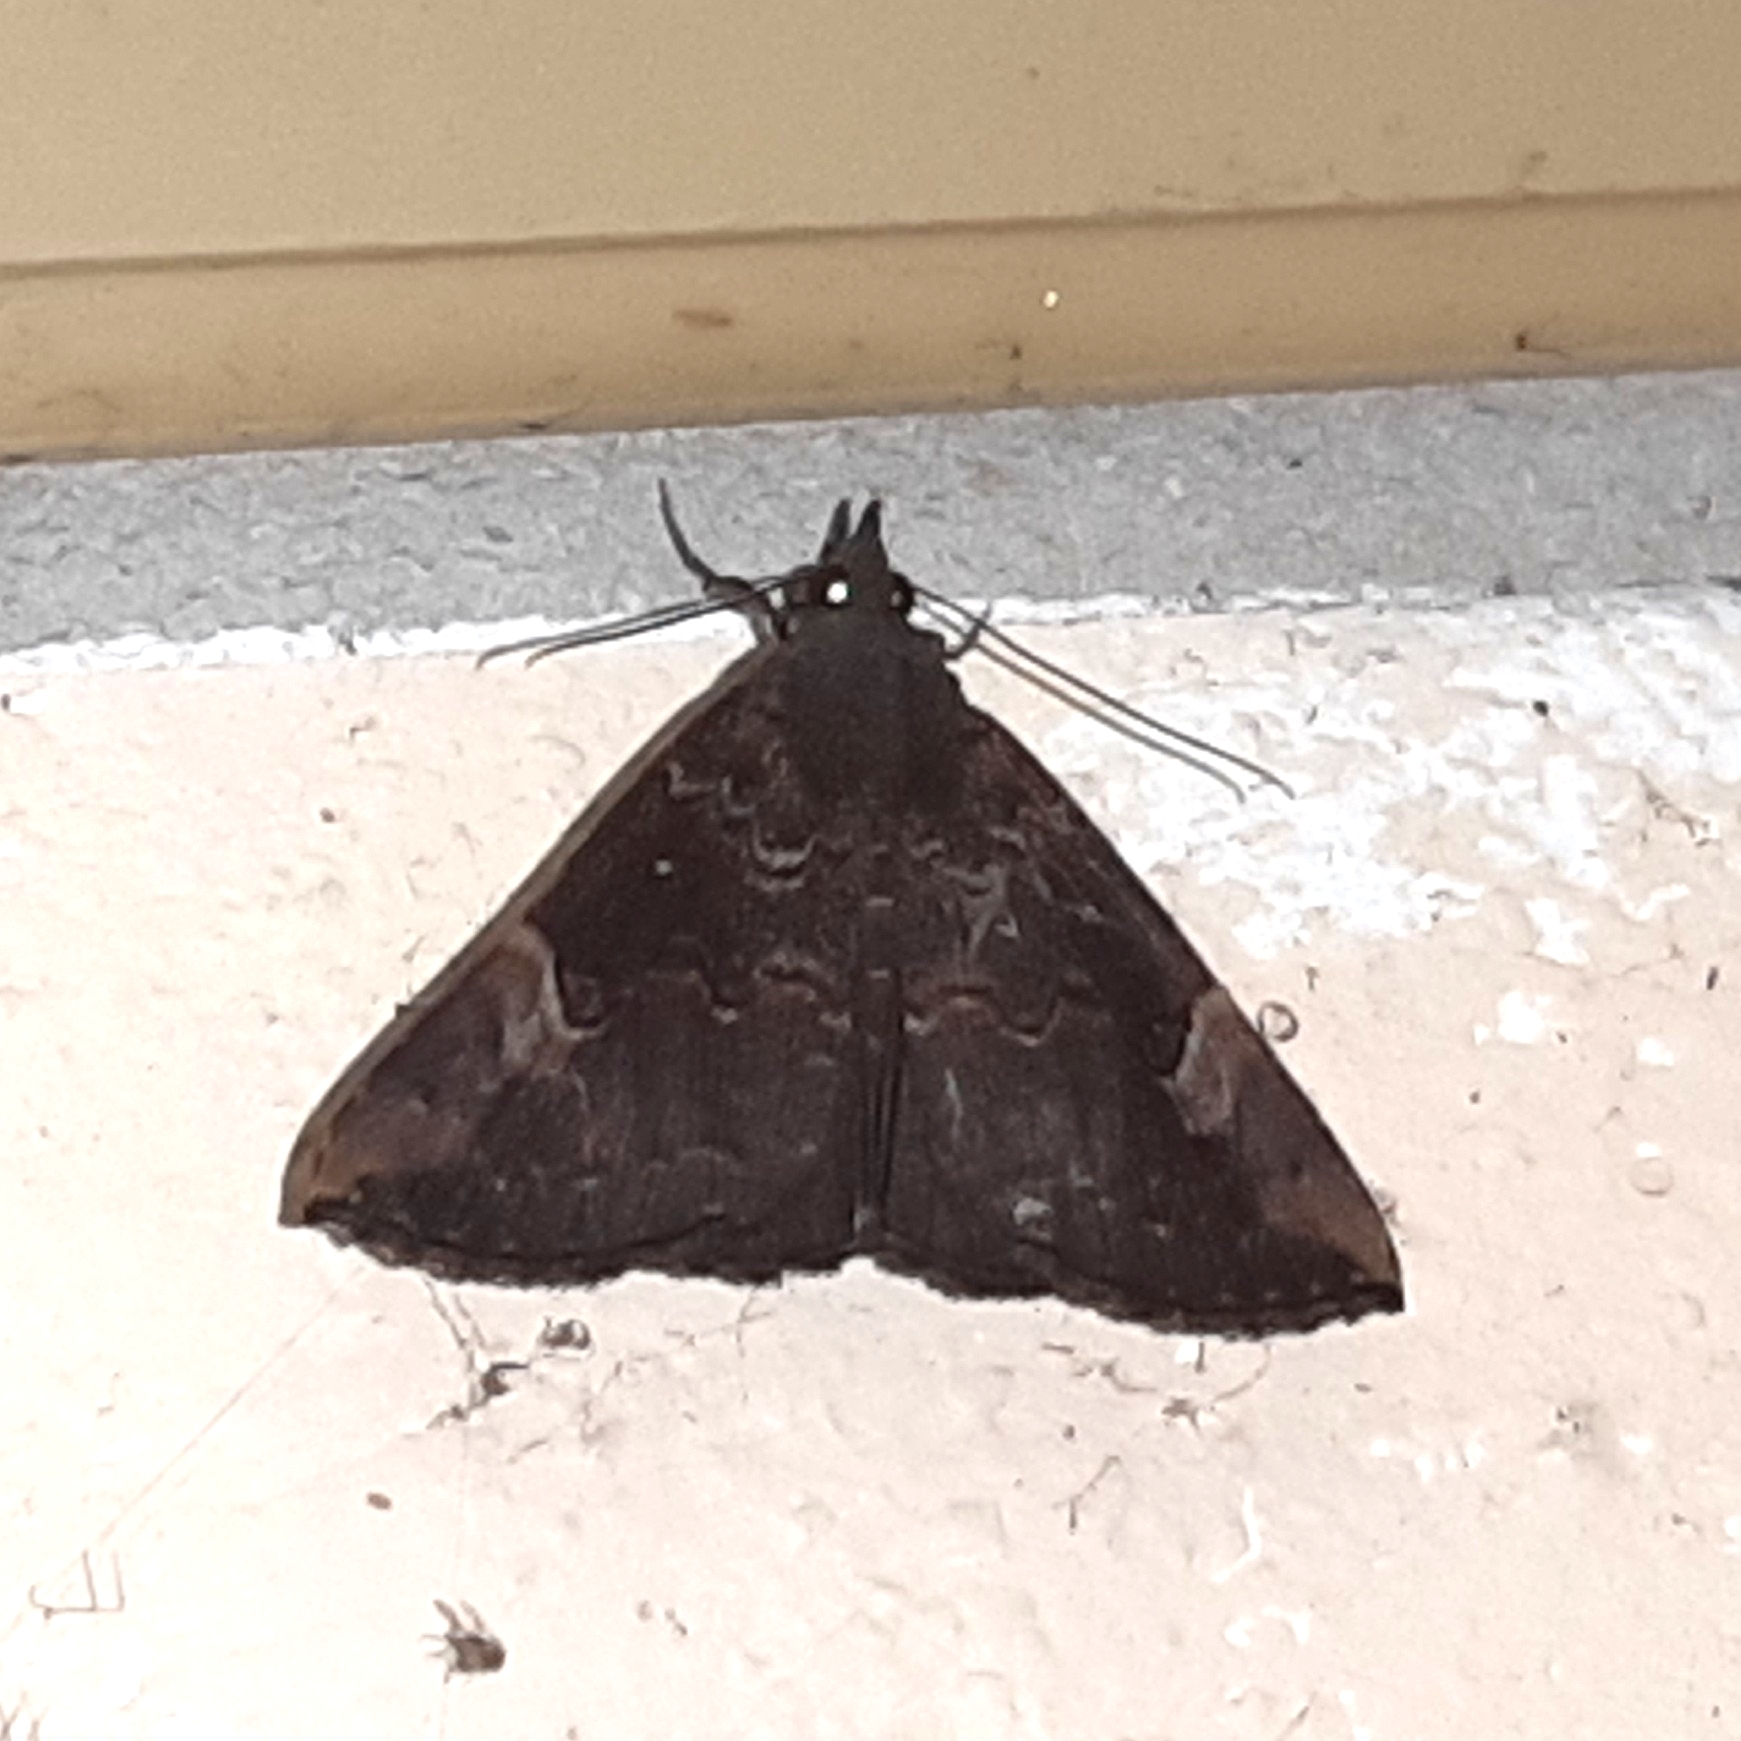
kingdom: Animalia
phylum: Arthropoda
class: Insecta
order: Lepidoptera
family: Erebidae
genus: Hypena
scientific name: Hypena peruvialis
